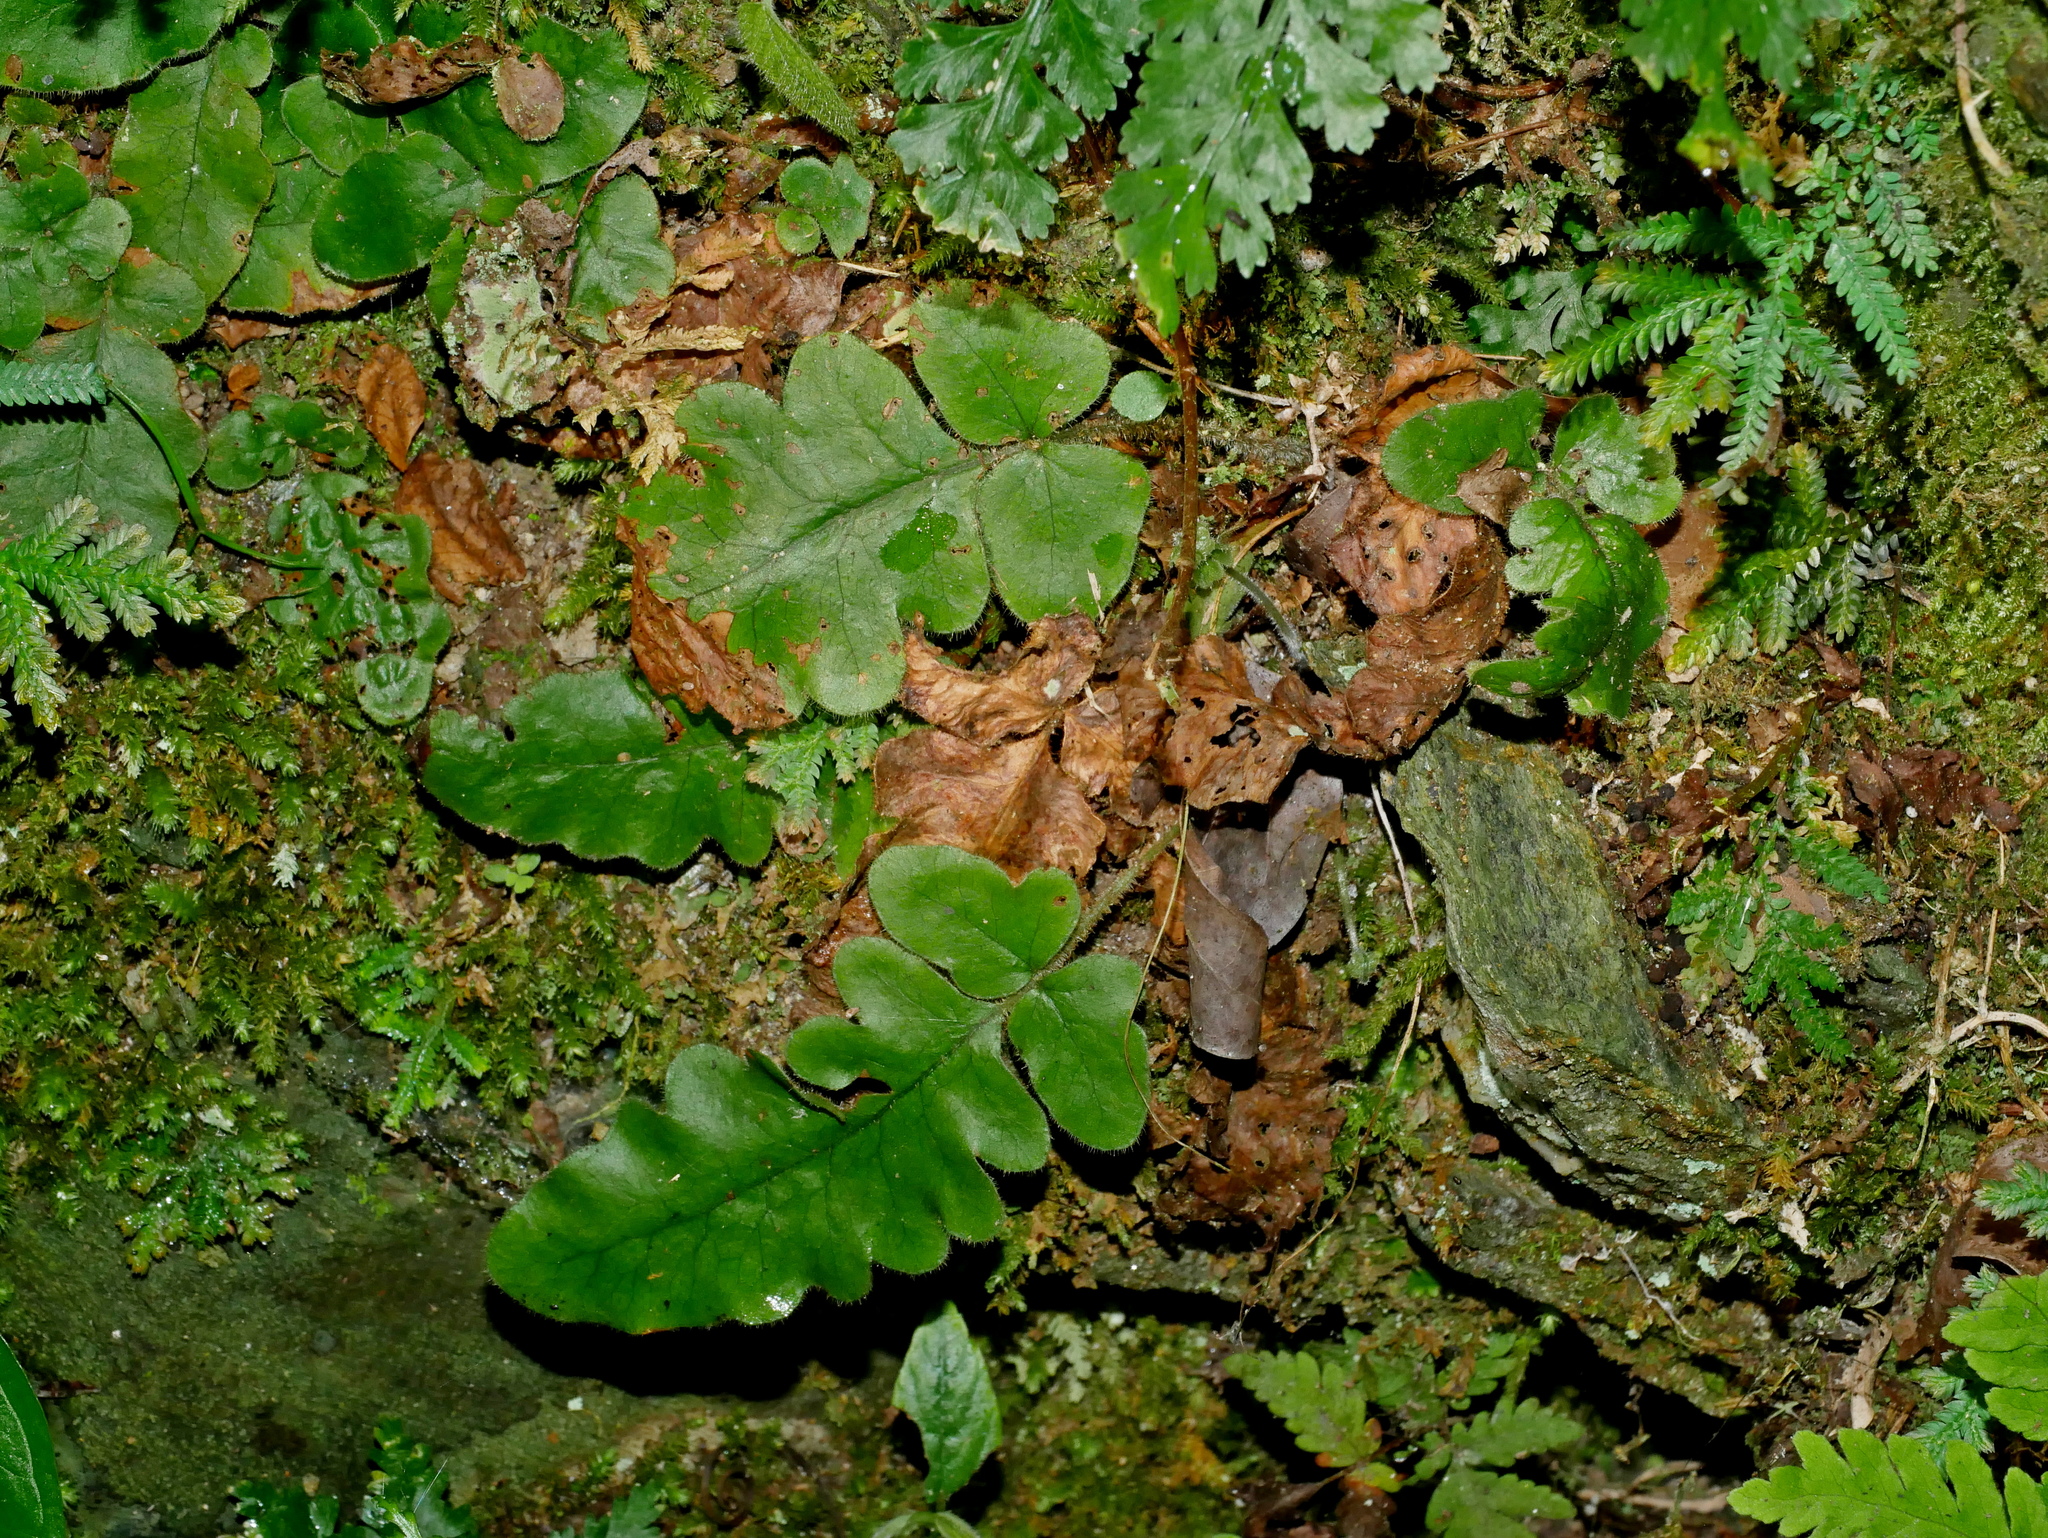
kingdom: Plantae
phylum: Tracheophyta
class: Polypodiopsida
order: Polypodiales
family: Tectariaceae
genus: Tectaria
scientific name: Tectaria zeilanica
